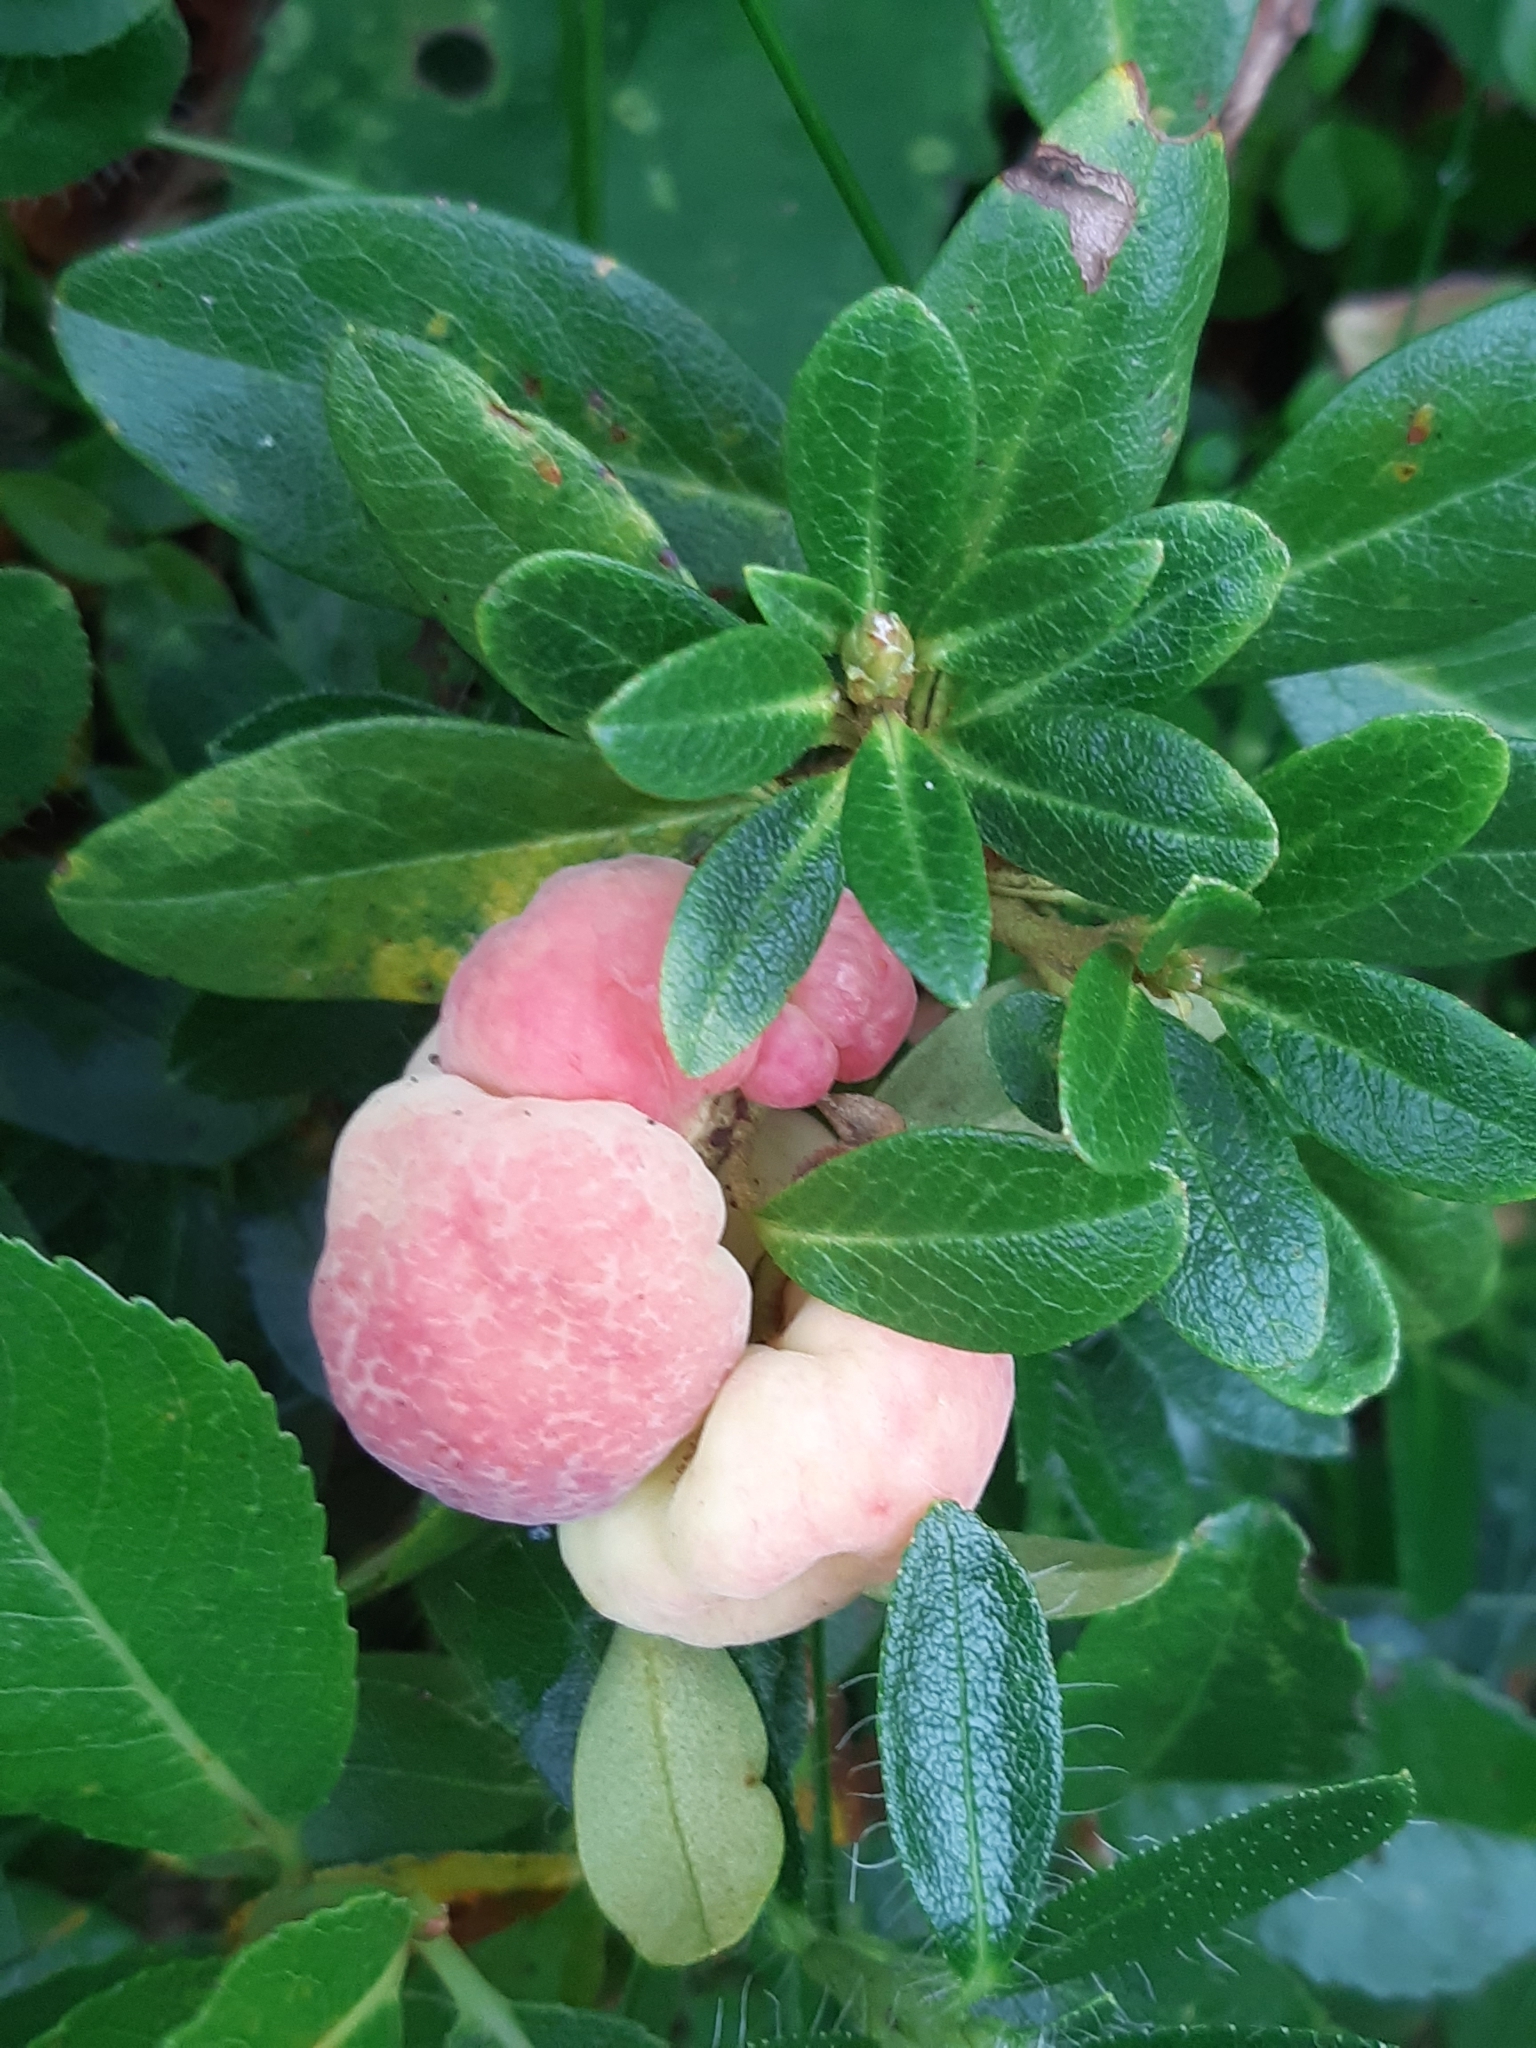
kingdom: Fungi
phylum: Basidiomycota
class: Exobasidiomycetes
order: Exobasidiales
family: Exobasidiaceae
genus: Exobasidium
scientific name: Exobasidium rhododendri
